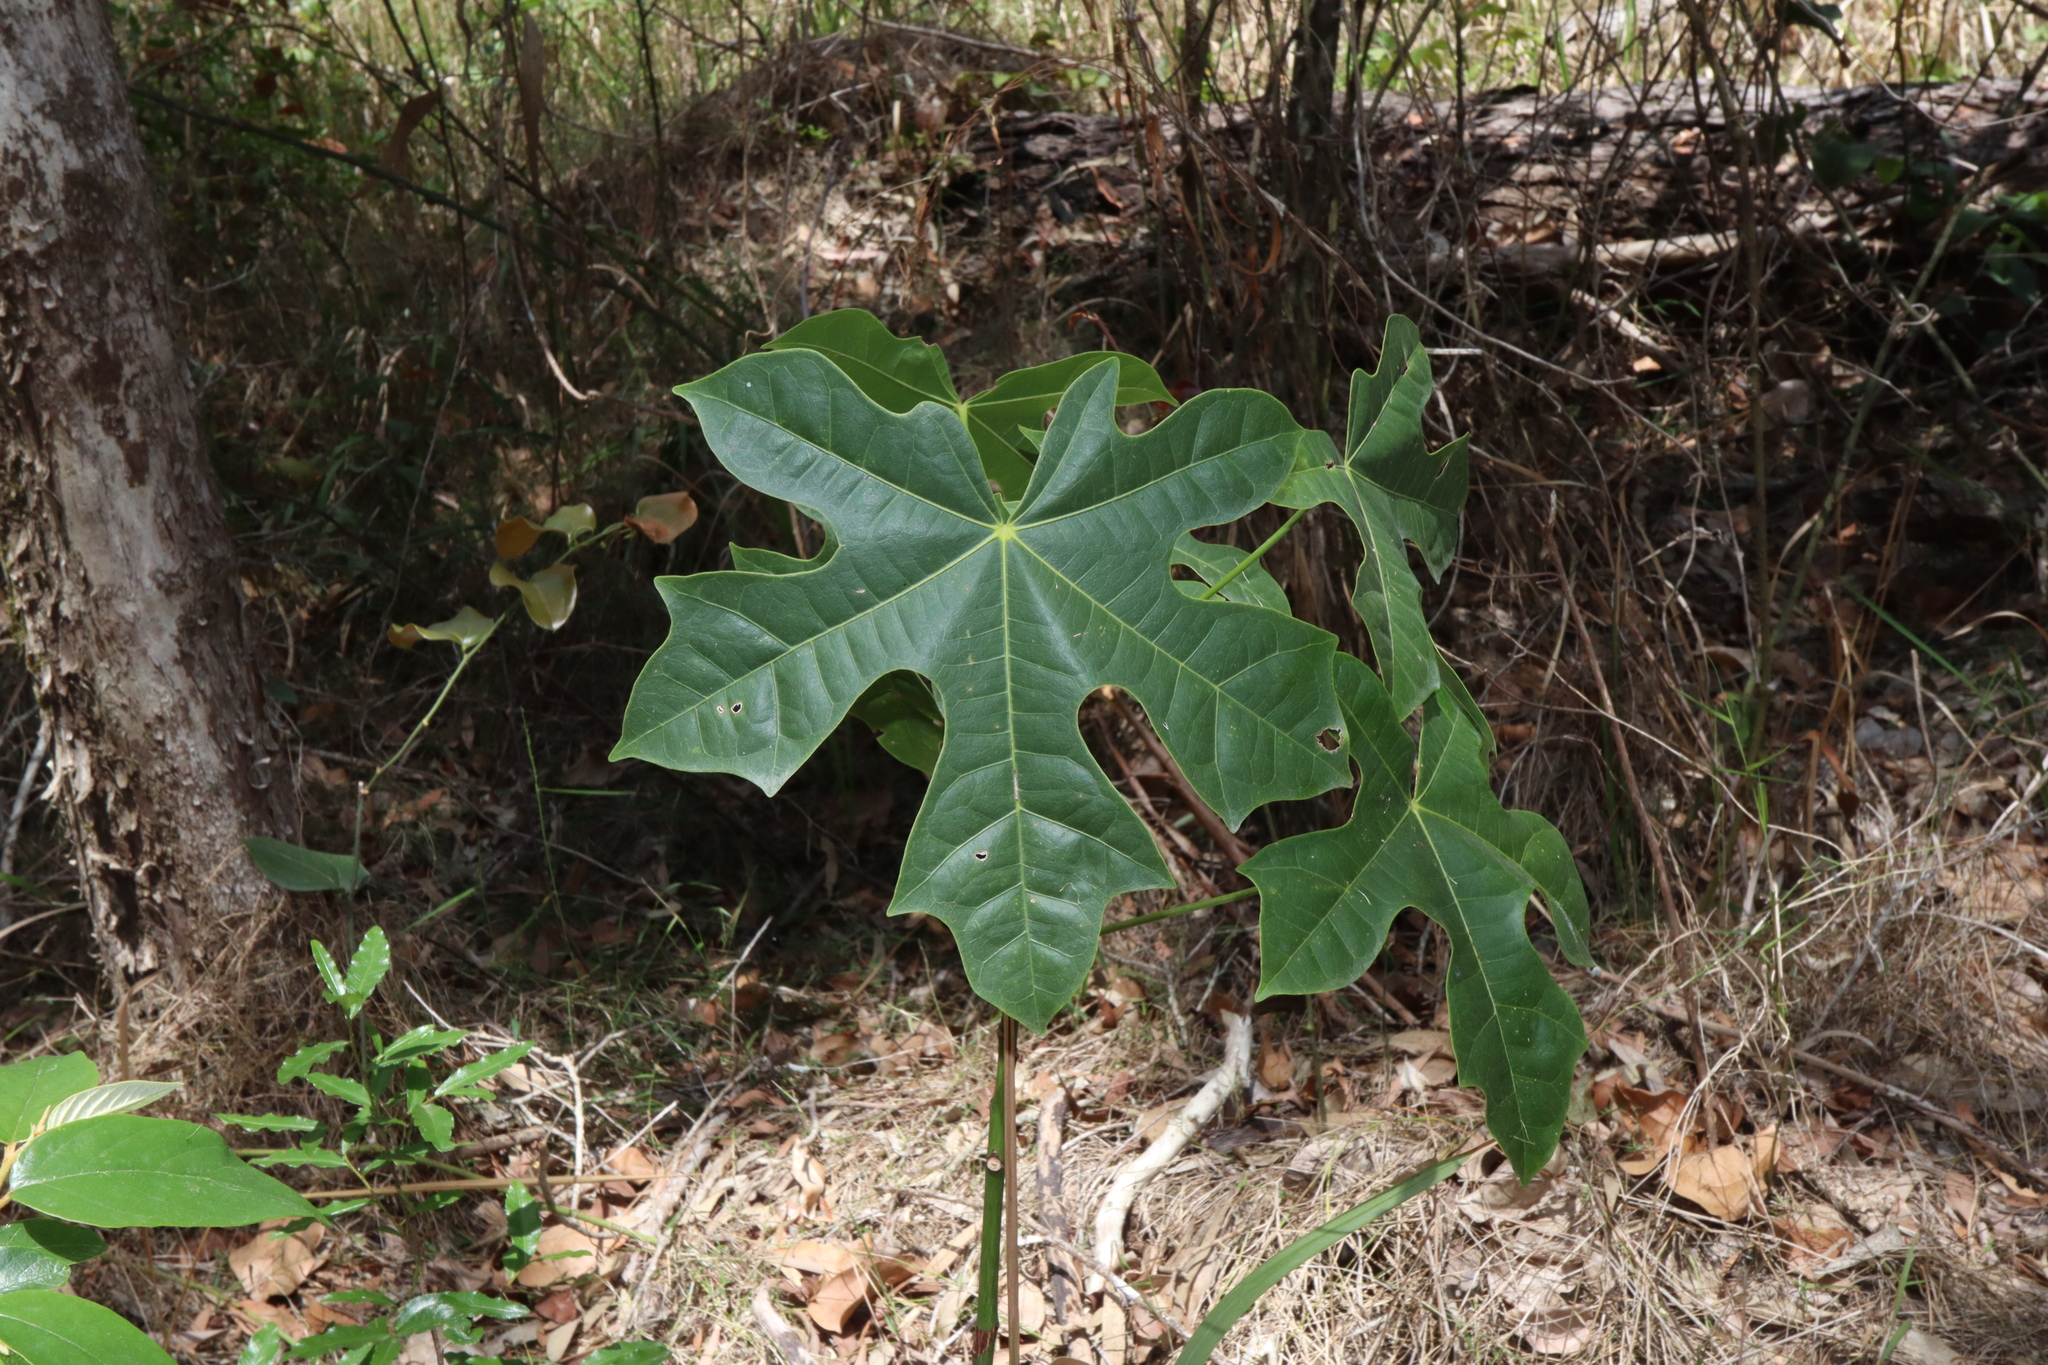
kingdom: Plantae
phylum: Tracheophyta
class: Magnoliopsida
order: Malvales
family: Malvaceae
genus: Brachychiton
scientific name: Brachychiton acerifolius
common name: Illawarra flame tree
